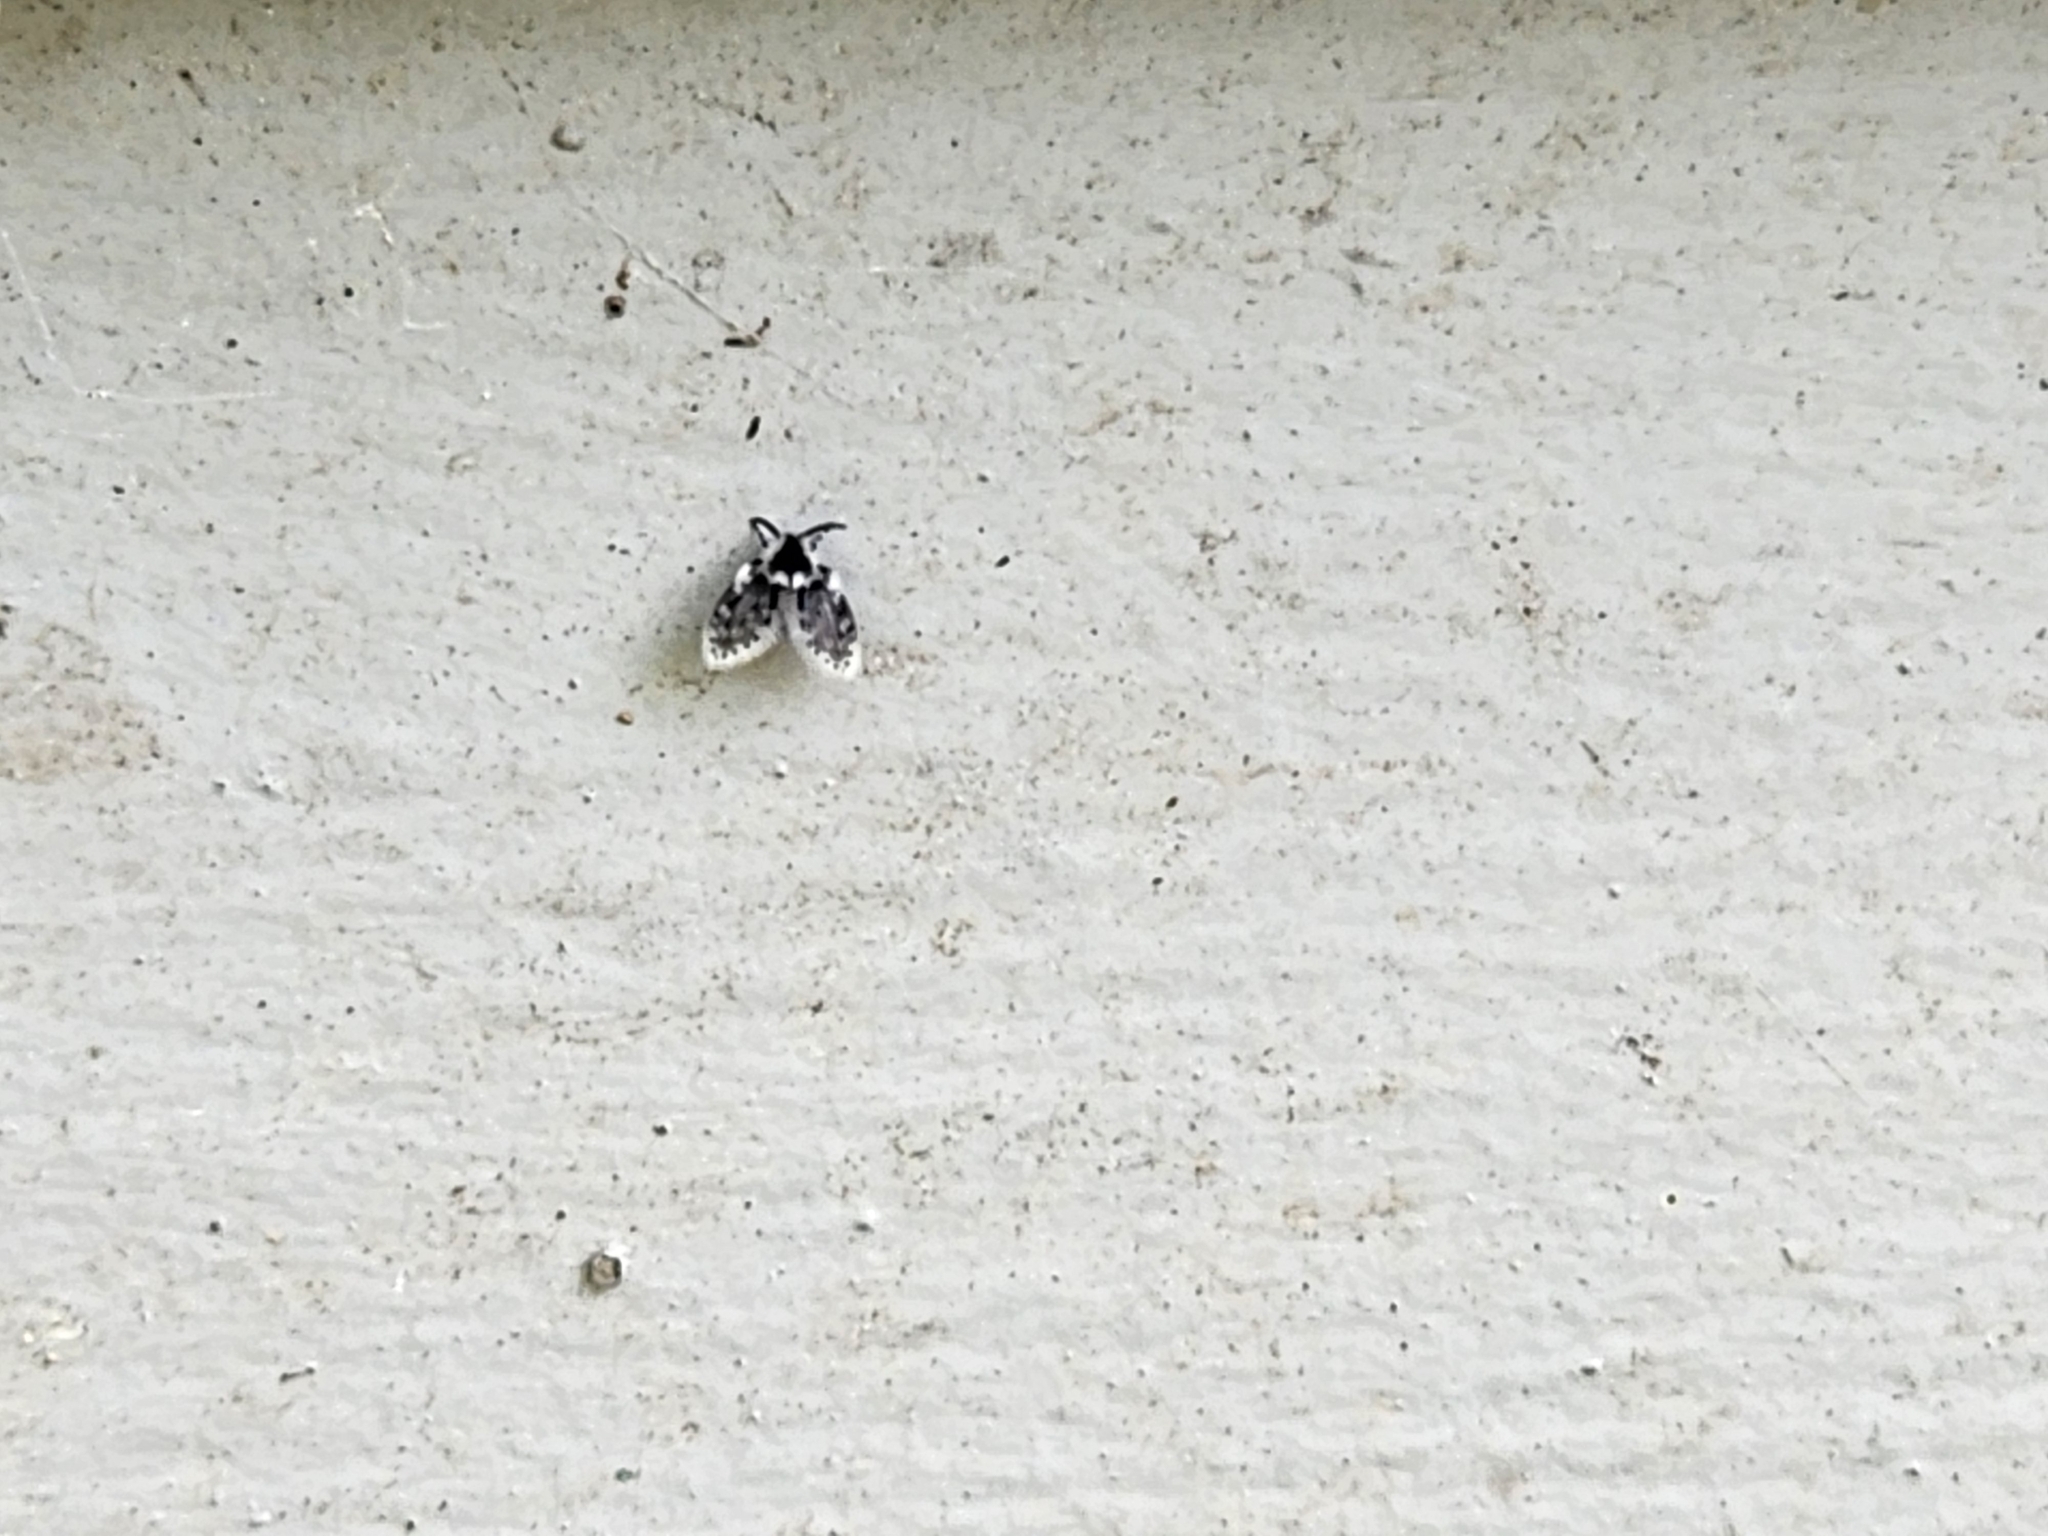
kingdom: Animalia
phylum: Arthropoda
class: Insecta
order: Diptera
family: Psychodidae
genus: Lepiseodina
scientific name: Lepiseodina
